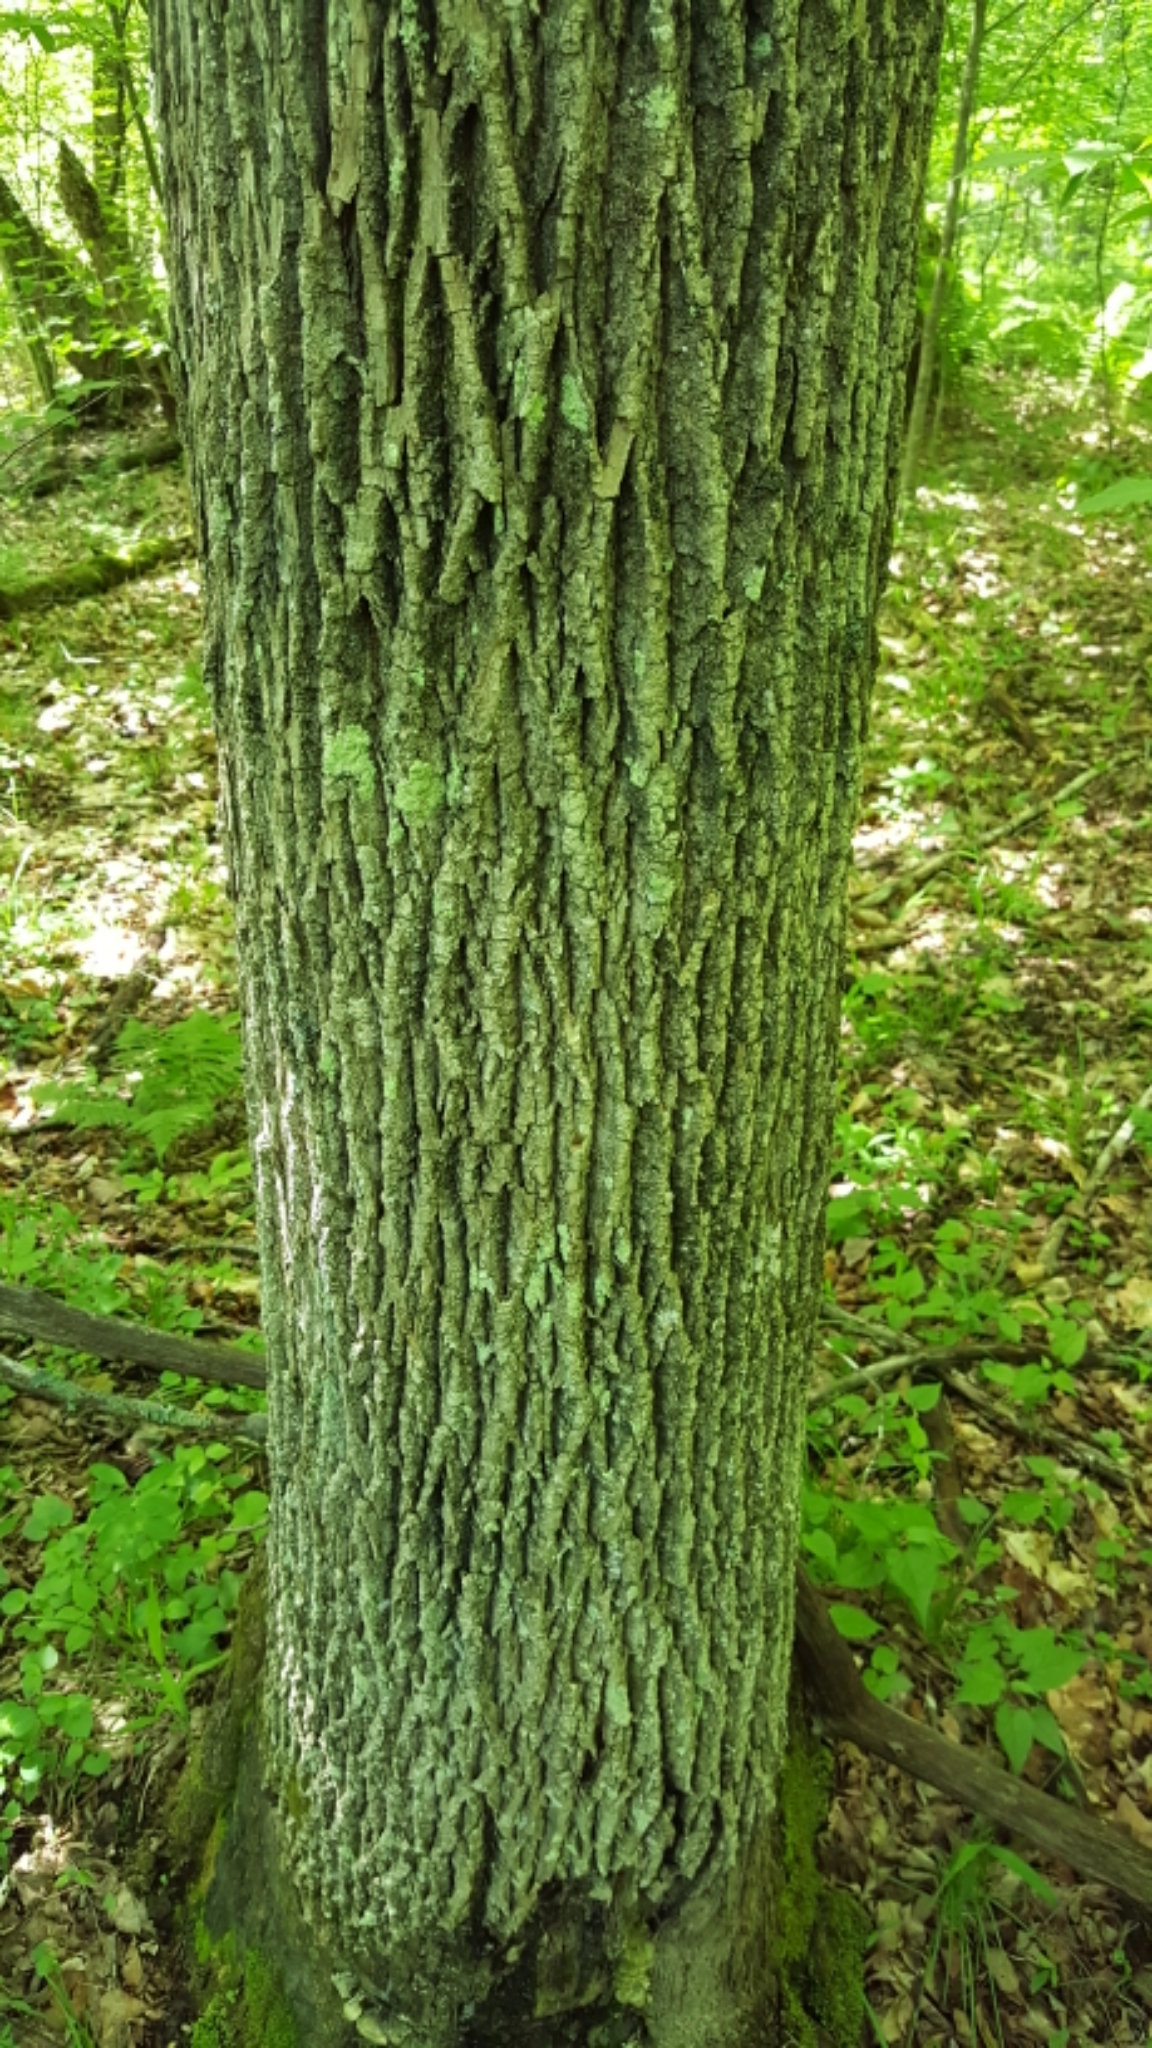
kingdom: Plantae
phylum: Tracheophyta
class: Magnoliopsida
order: Lamiales
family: Oleaceae
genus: Fraxinus
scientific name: Fraxinus americana
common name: White ash
